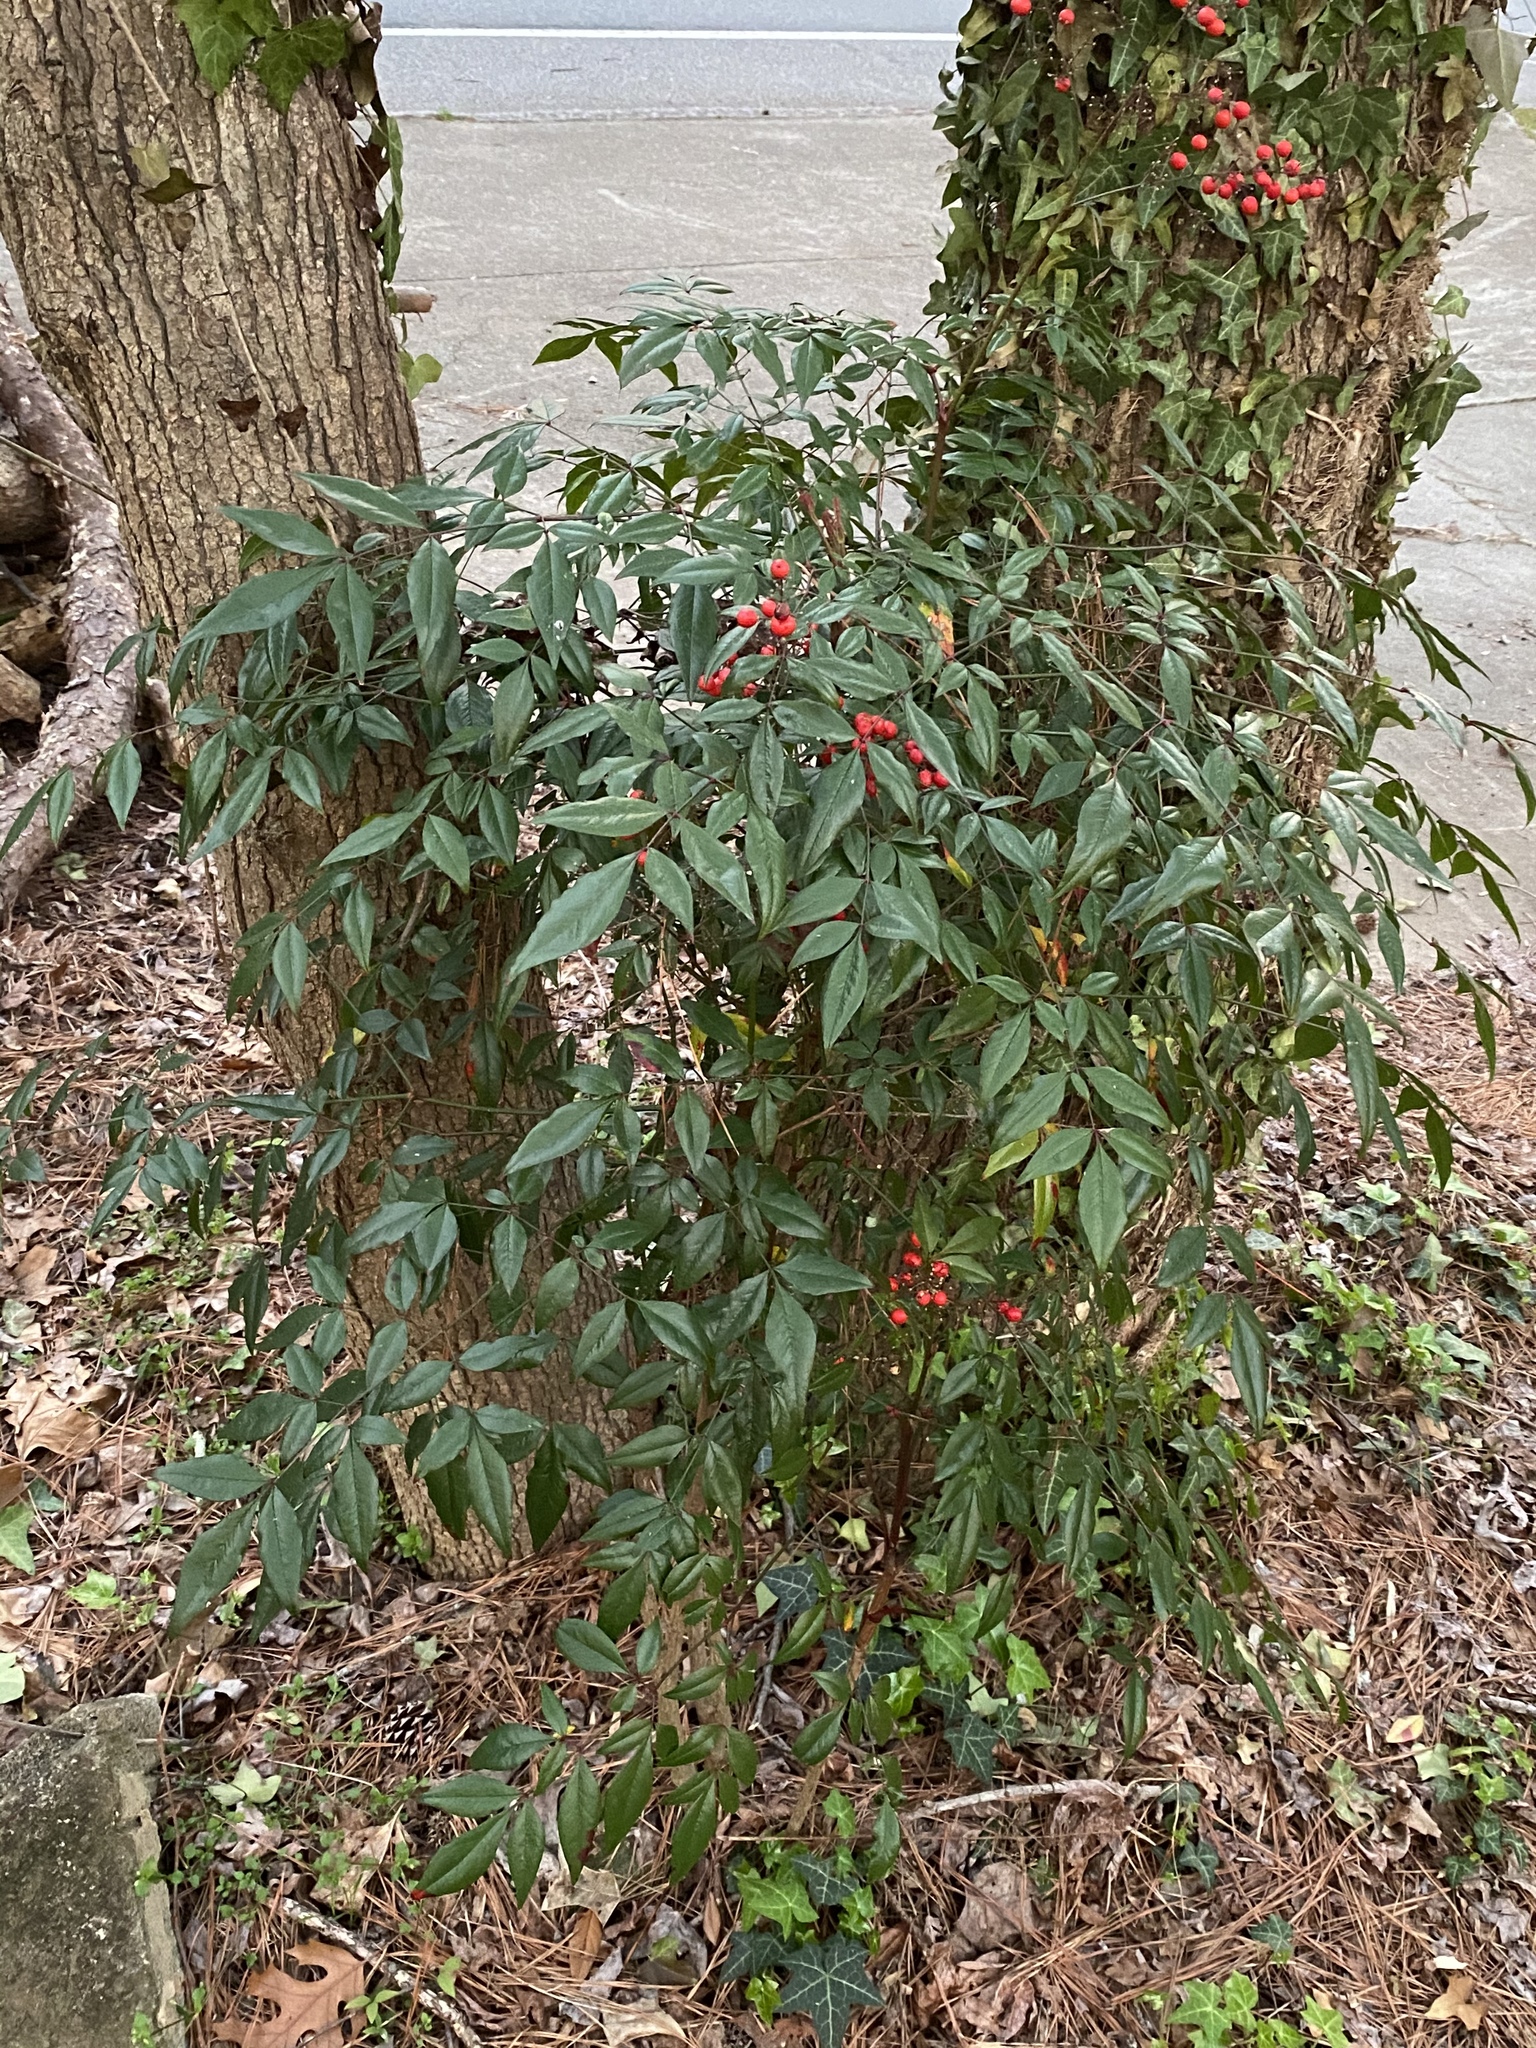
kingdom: Plantae
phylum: Tracheophyta
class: Magnoliopsida
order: Ranunculales
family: Berberidaceae
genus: Nandina
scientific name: Nandina domestica
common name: Sacred bamboo
